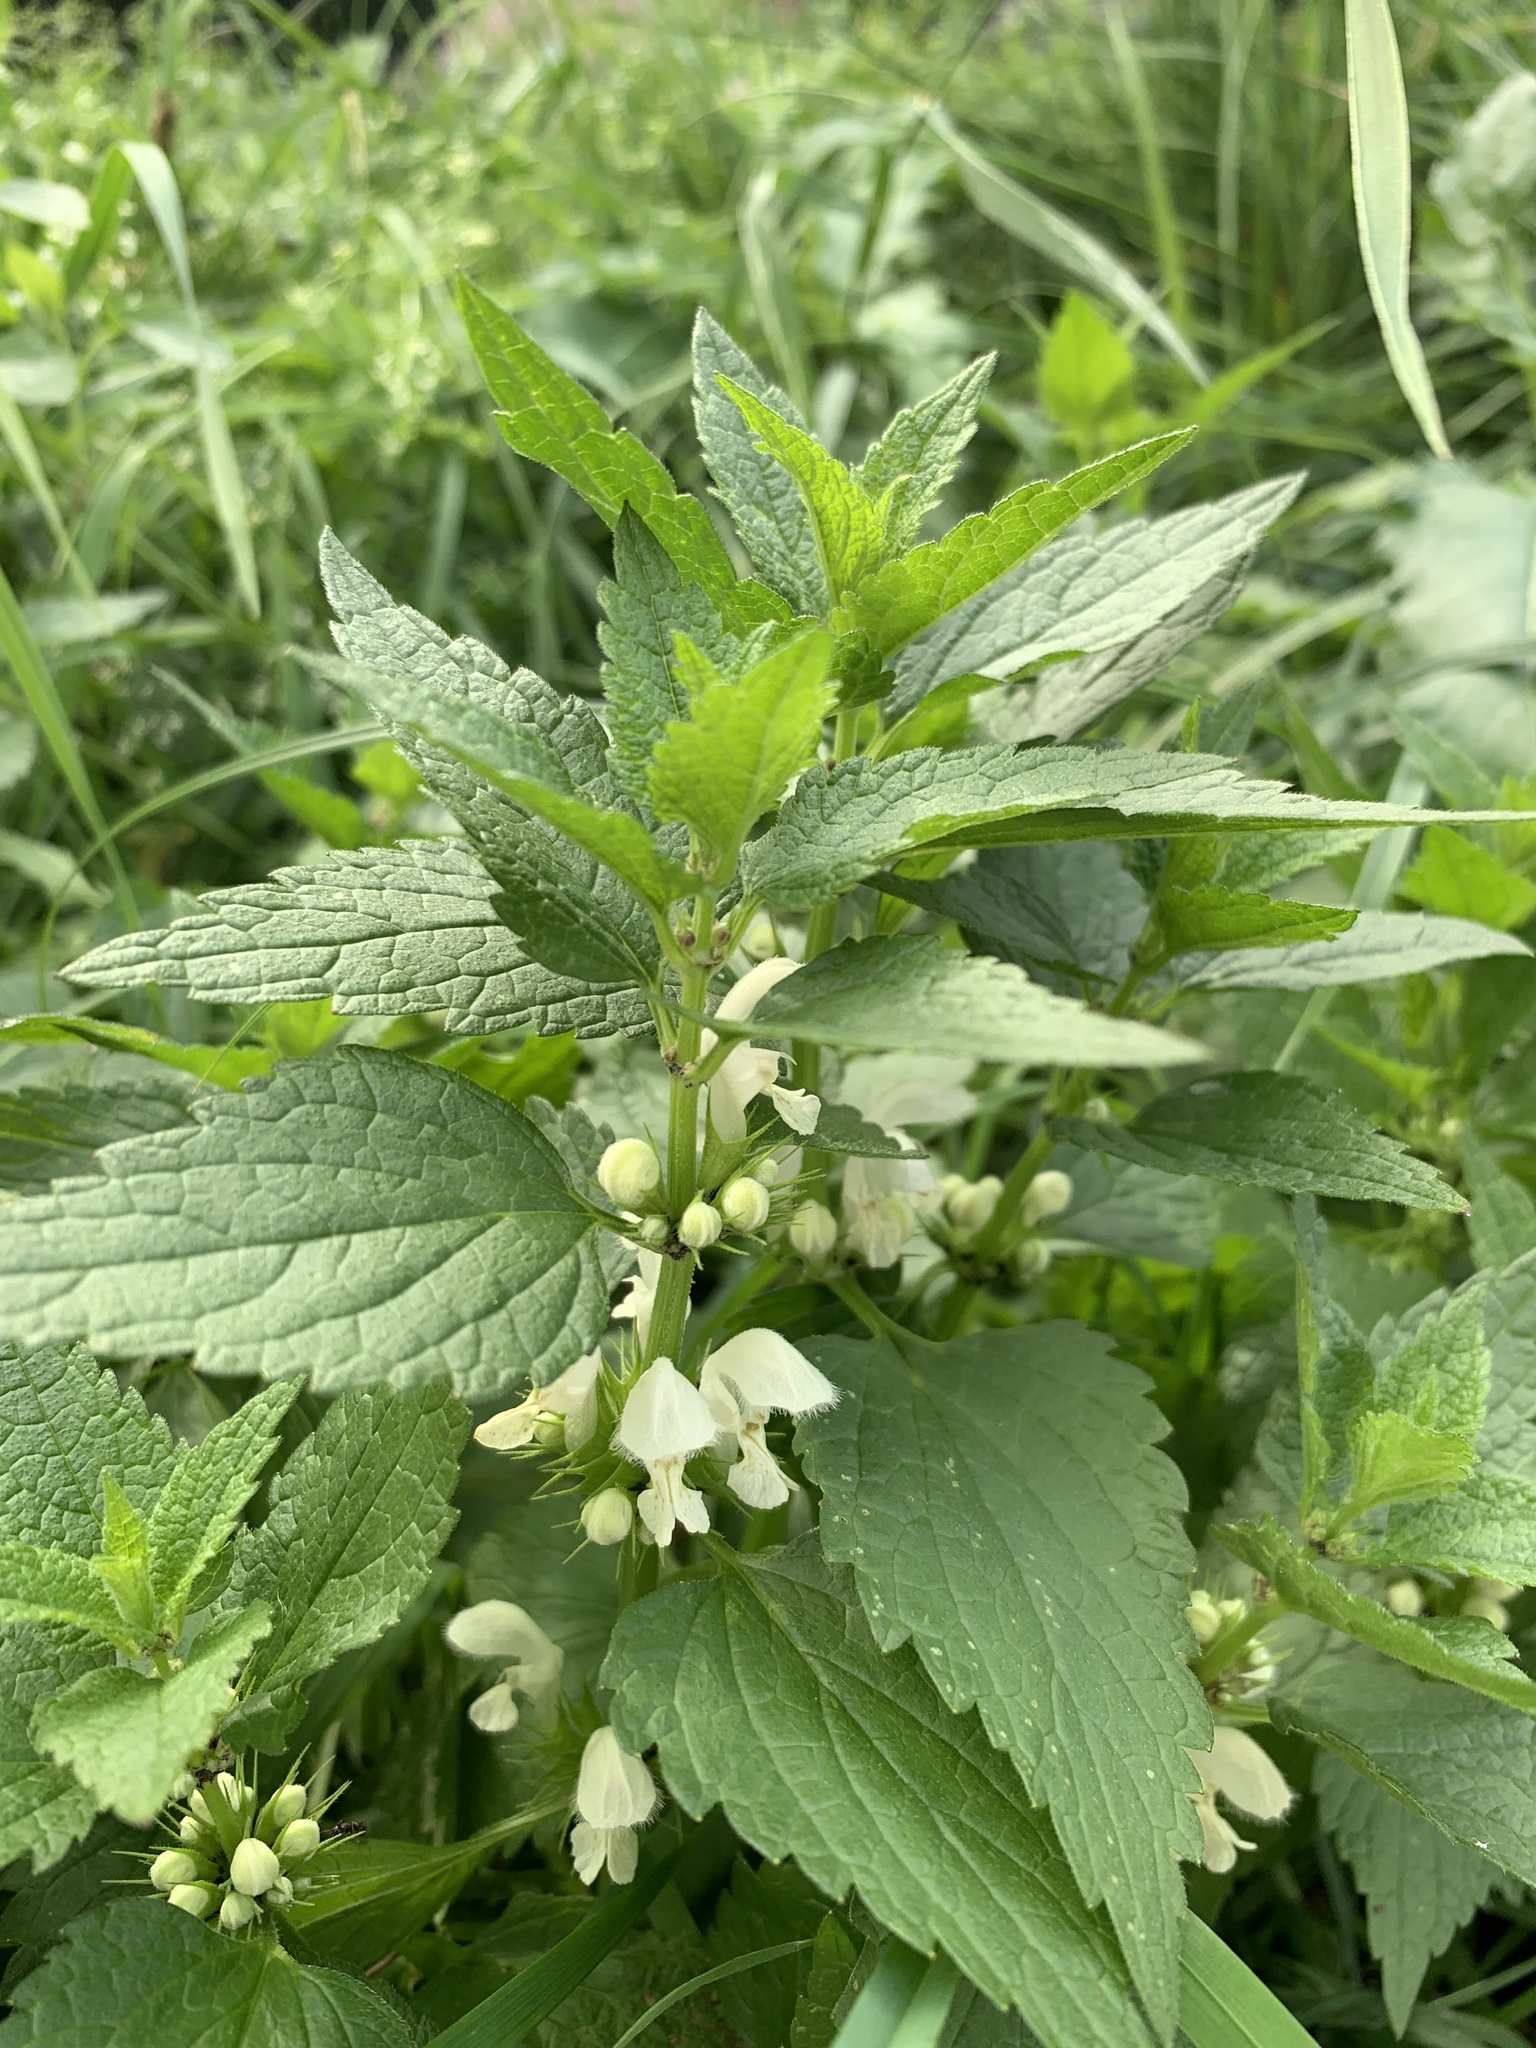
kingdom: Plantae
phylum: Tracheophyta
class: Magnoliopsida
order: Lamiales
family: Lamiaceae
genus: Lamium
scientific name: Lamium album
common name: White dead-nettle
